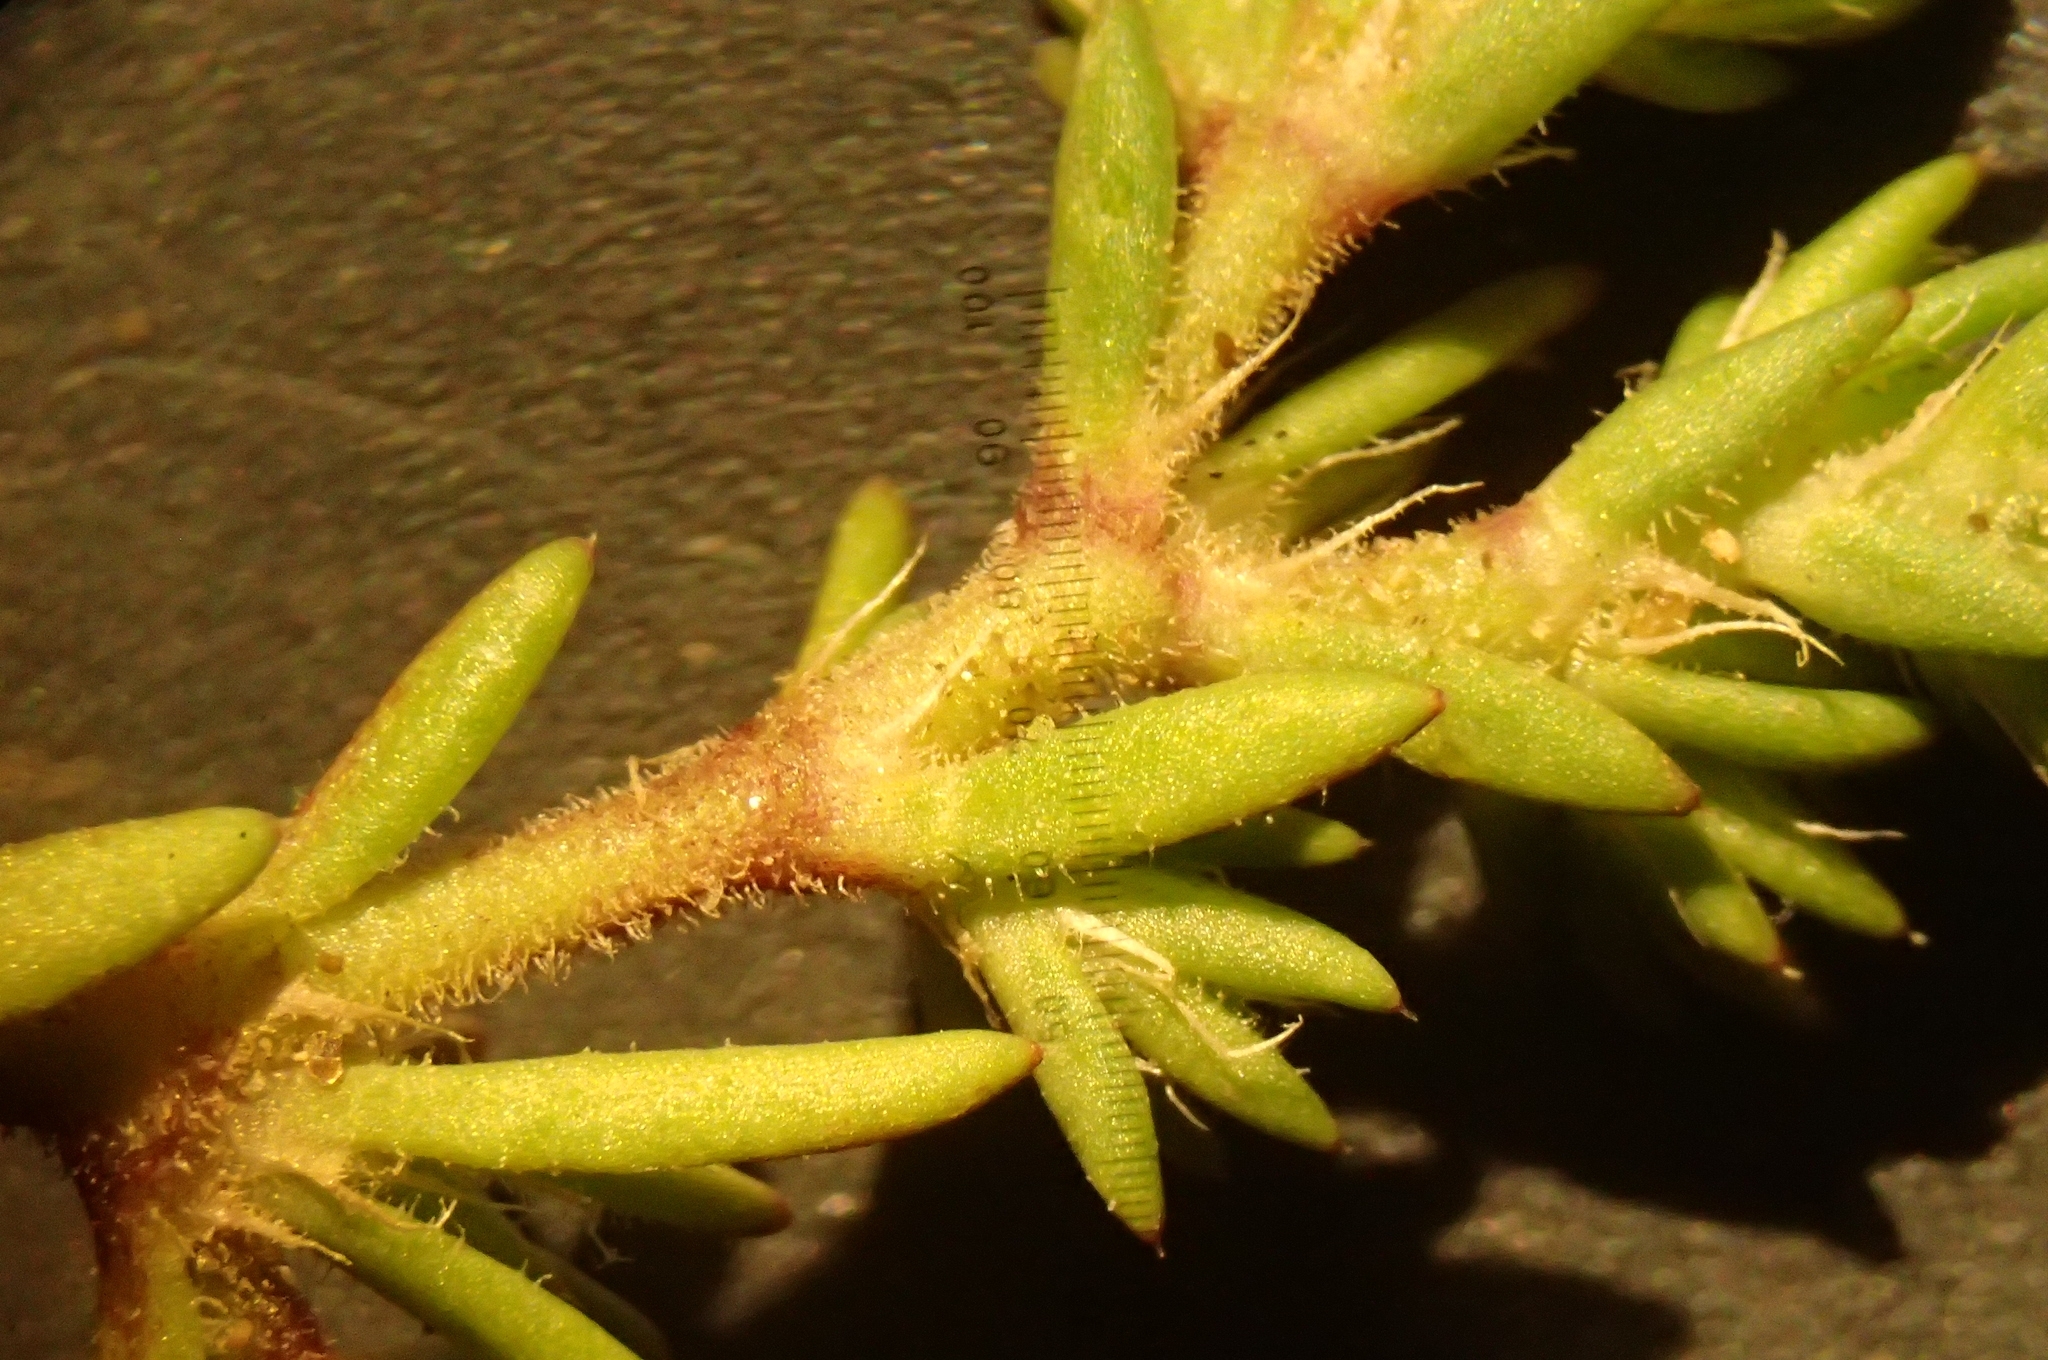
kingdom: Plantae
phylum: Tracheophyta
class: Magnoliopsida
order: Caryophyllales
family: Caryophyllaceae
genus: Loeflingia
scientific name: Loeflingia hispanica
